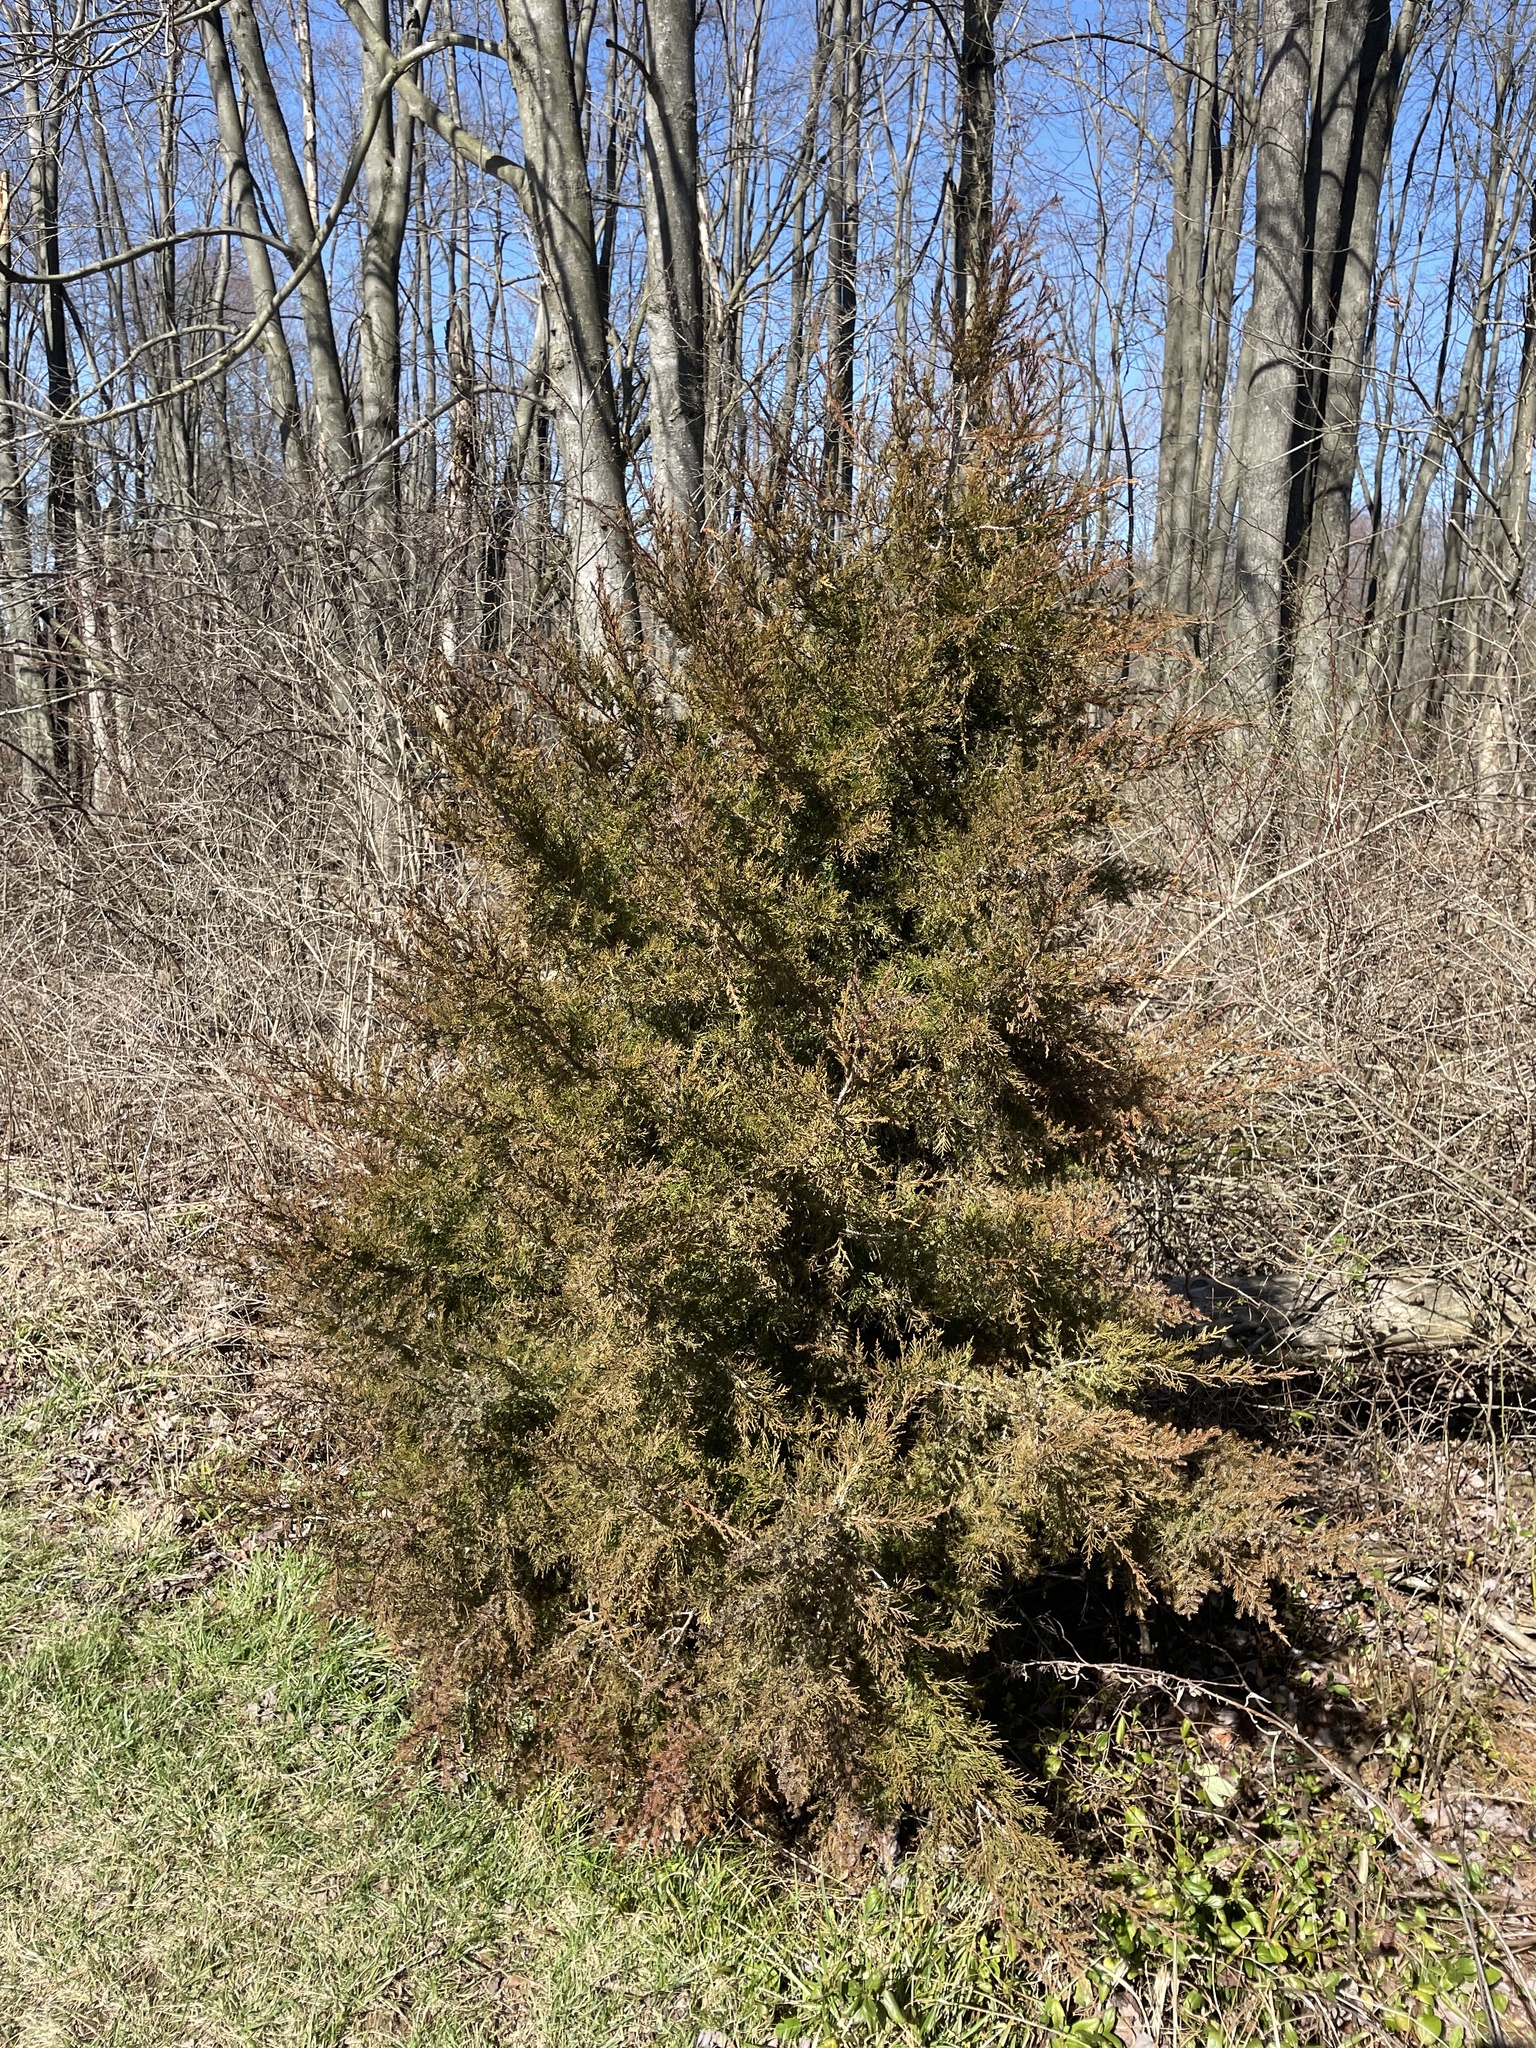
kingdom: Plantae
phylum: Tracheophyta
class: Pinopsida
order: Pinales
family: Cupressaceae
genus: Juniperus
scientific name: Juniperus virginiana
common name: Red juniper
